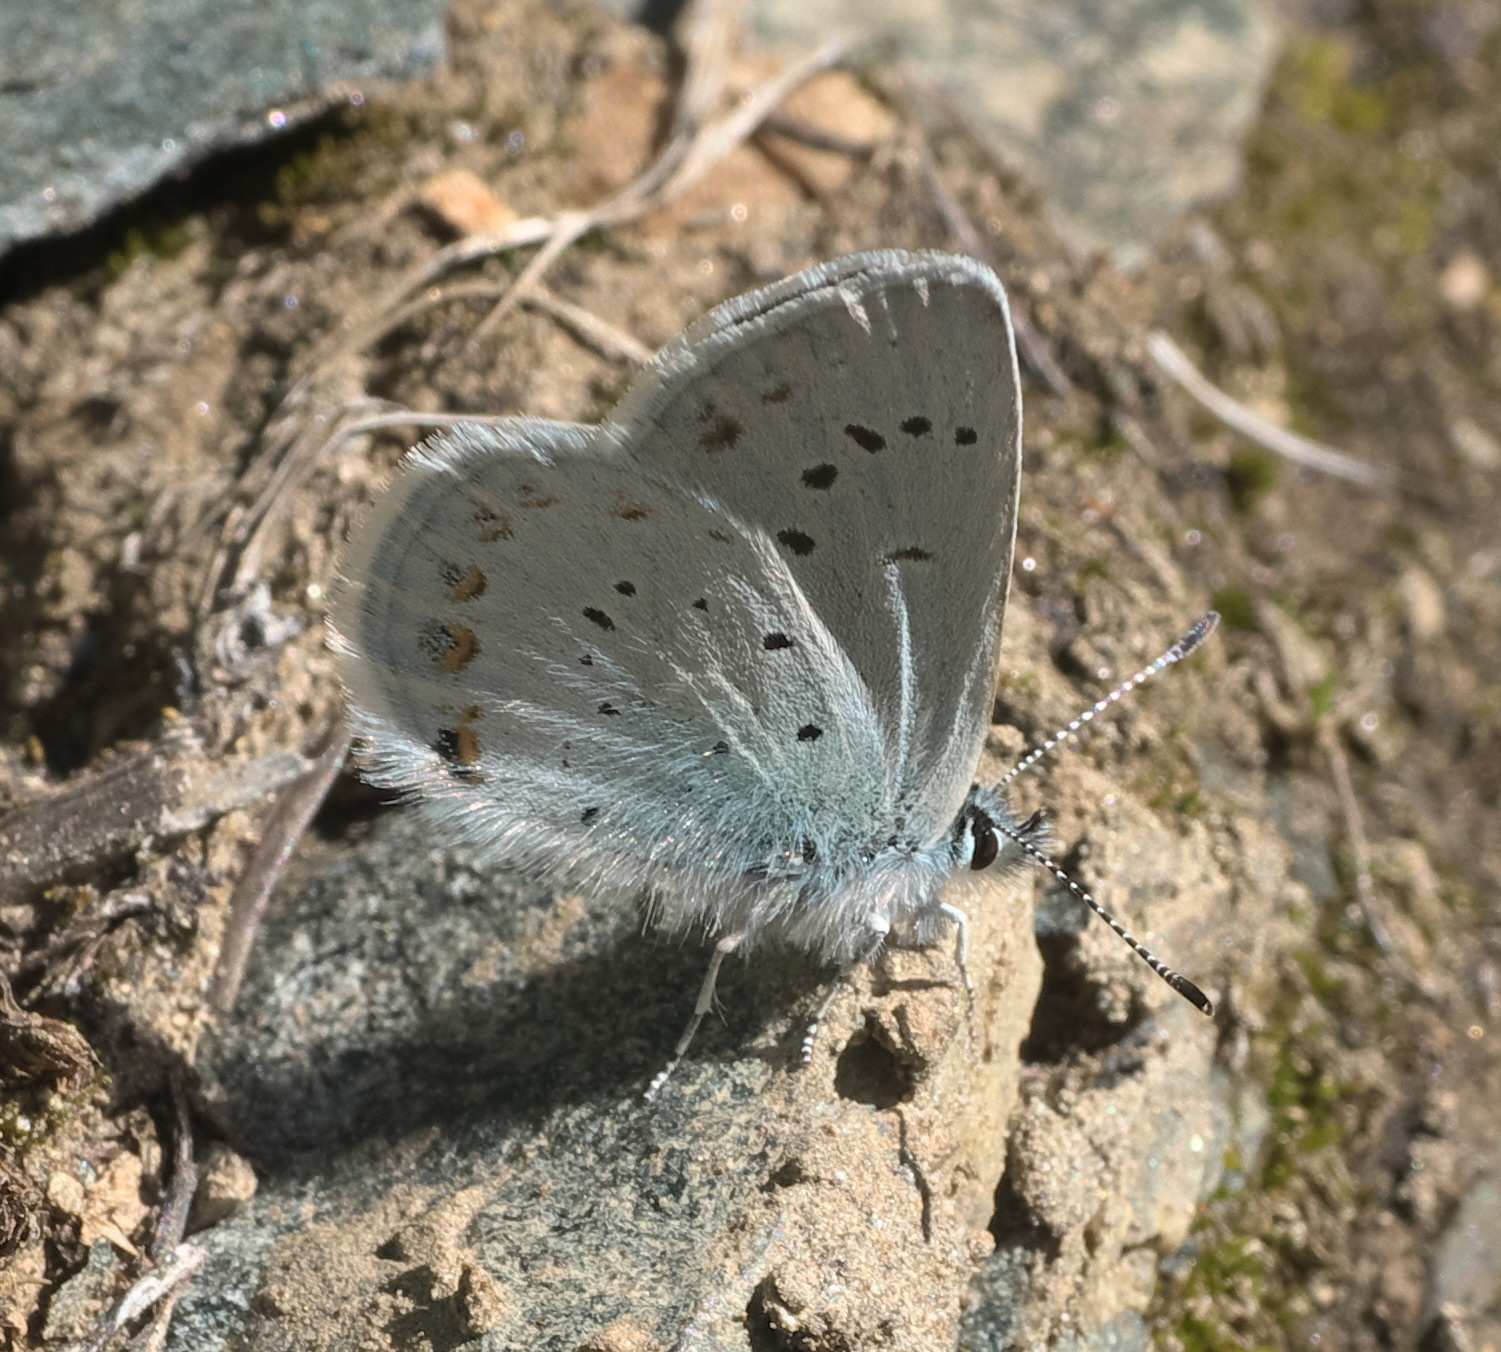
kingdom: Animalia
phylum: Arthropoda
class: Insecta
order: Lepidoptera
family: Lycaenidae
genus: Lycaeides
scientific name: Lycaeides anna
